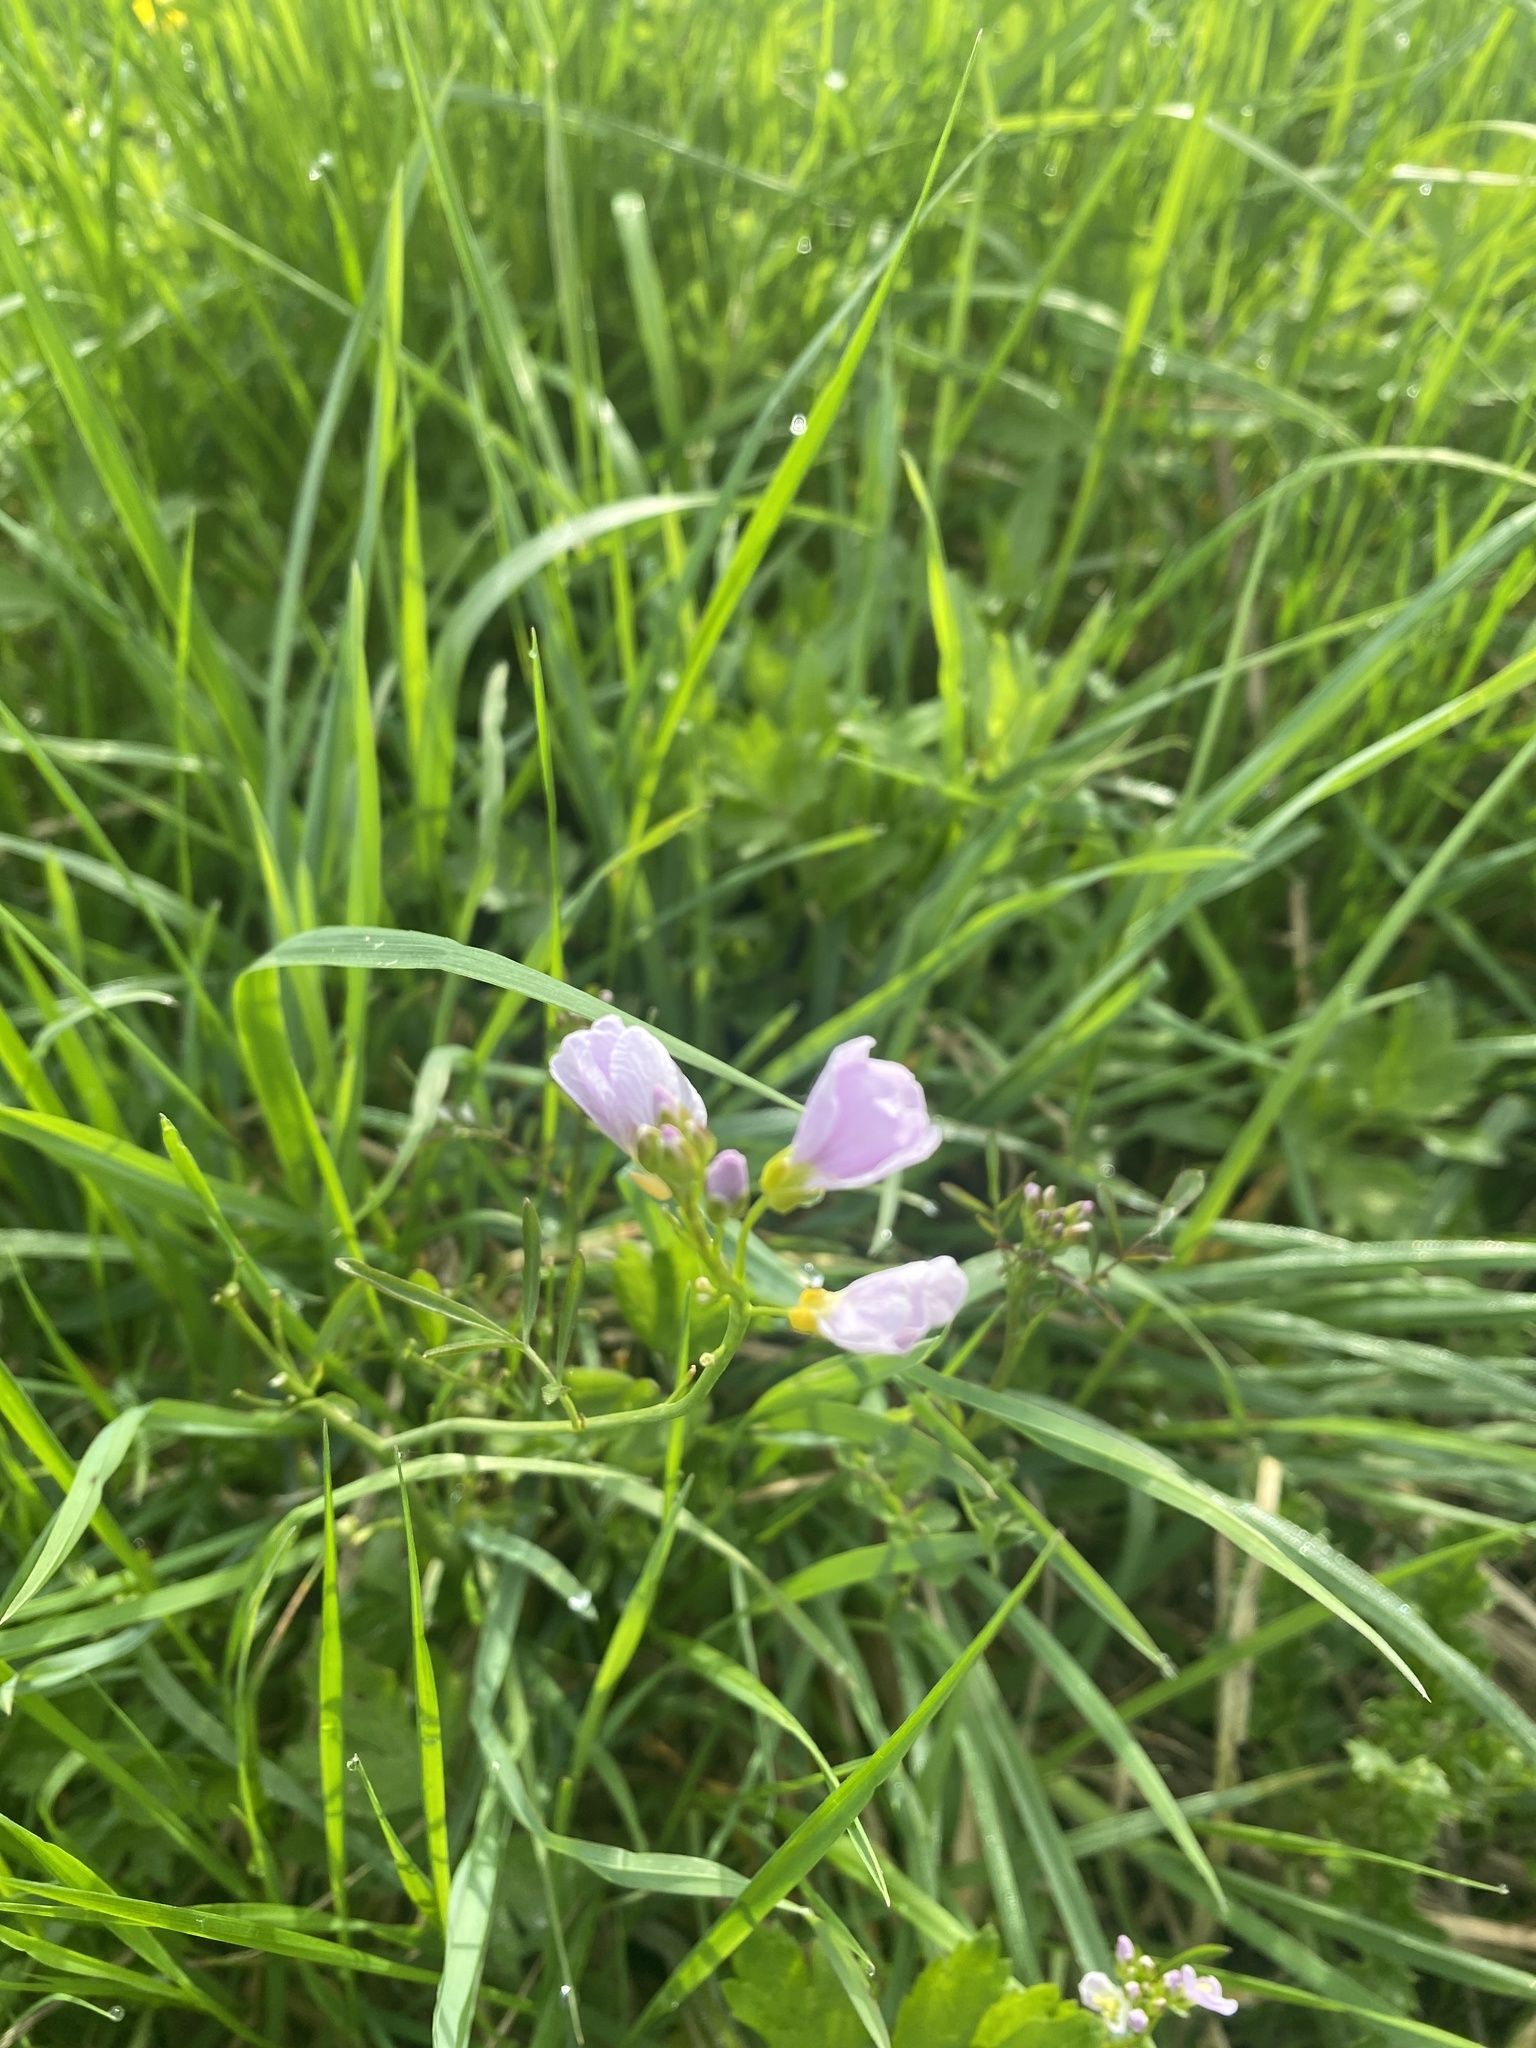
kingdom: Plantae
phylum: Tracheophyta
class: Magnoliopsida
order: Brassicales
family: Brassicaceae
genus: Cardamine
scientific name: Cardamine pratensis
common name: Cuckoo flower
